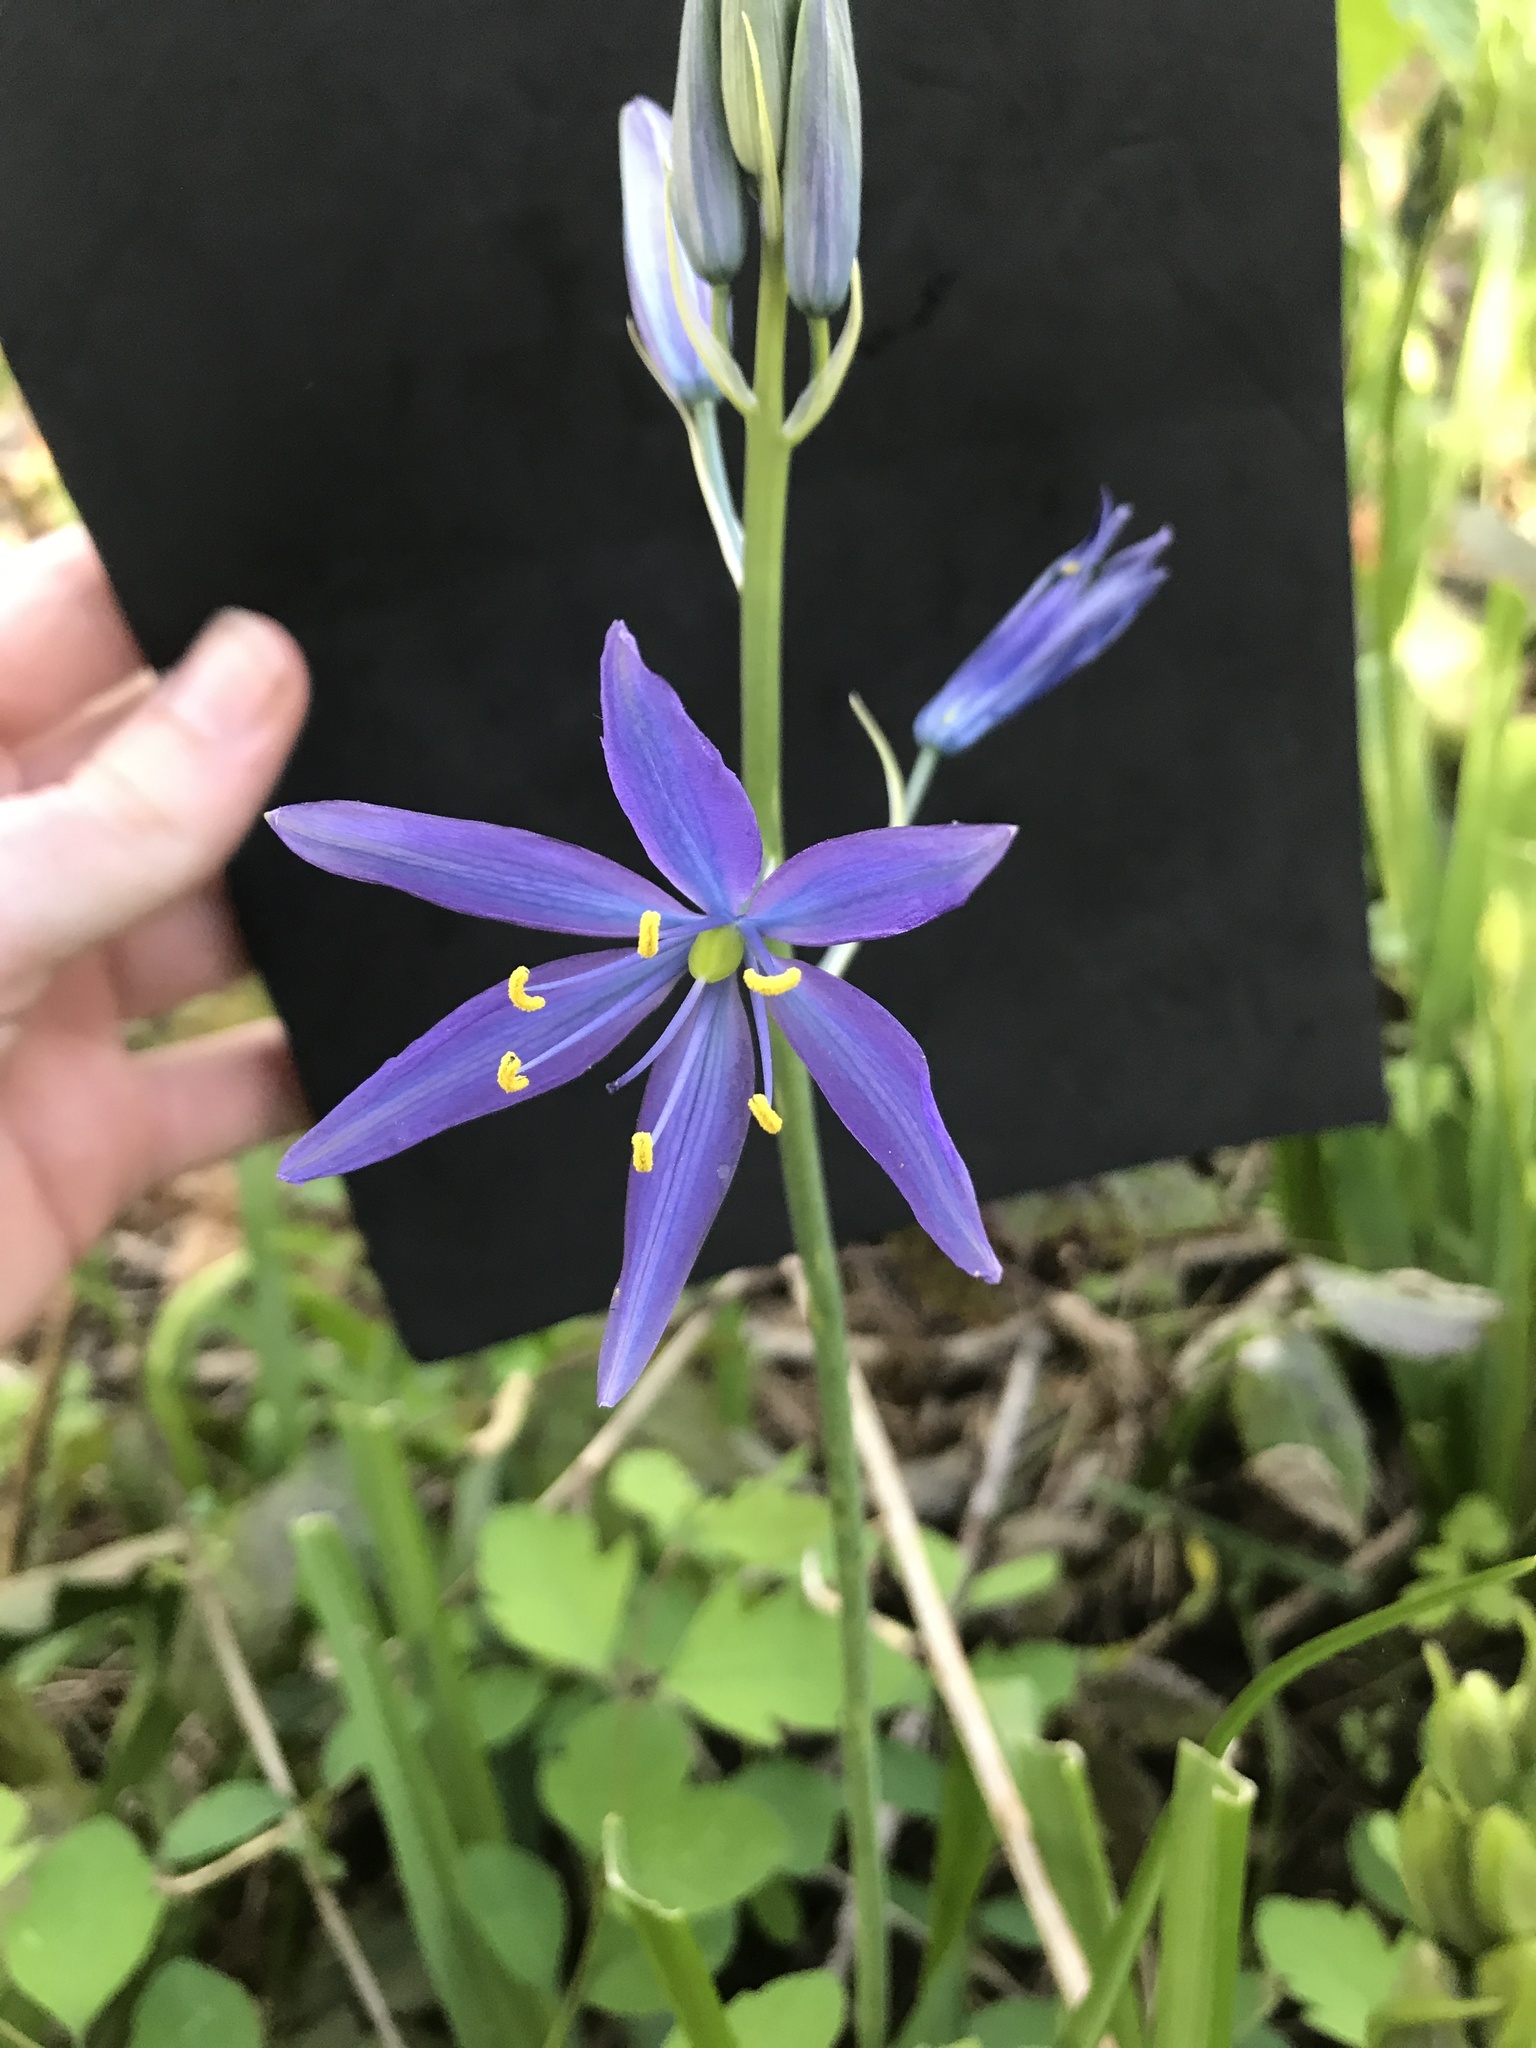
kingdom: Plantae
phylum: Tracheophyta
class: Liliopsida
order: Asparagales
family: Asparagaceae
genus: Camassia
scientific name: Camassia leichtlinii
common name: Leichtlin's camas
